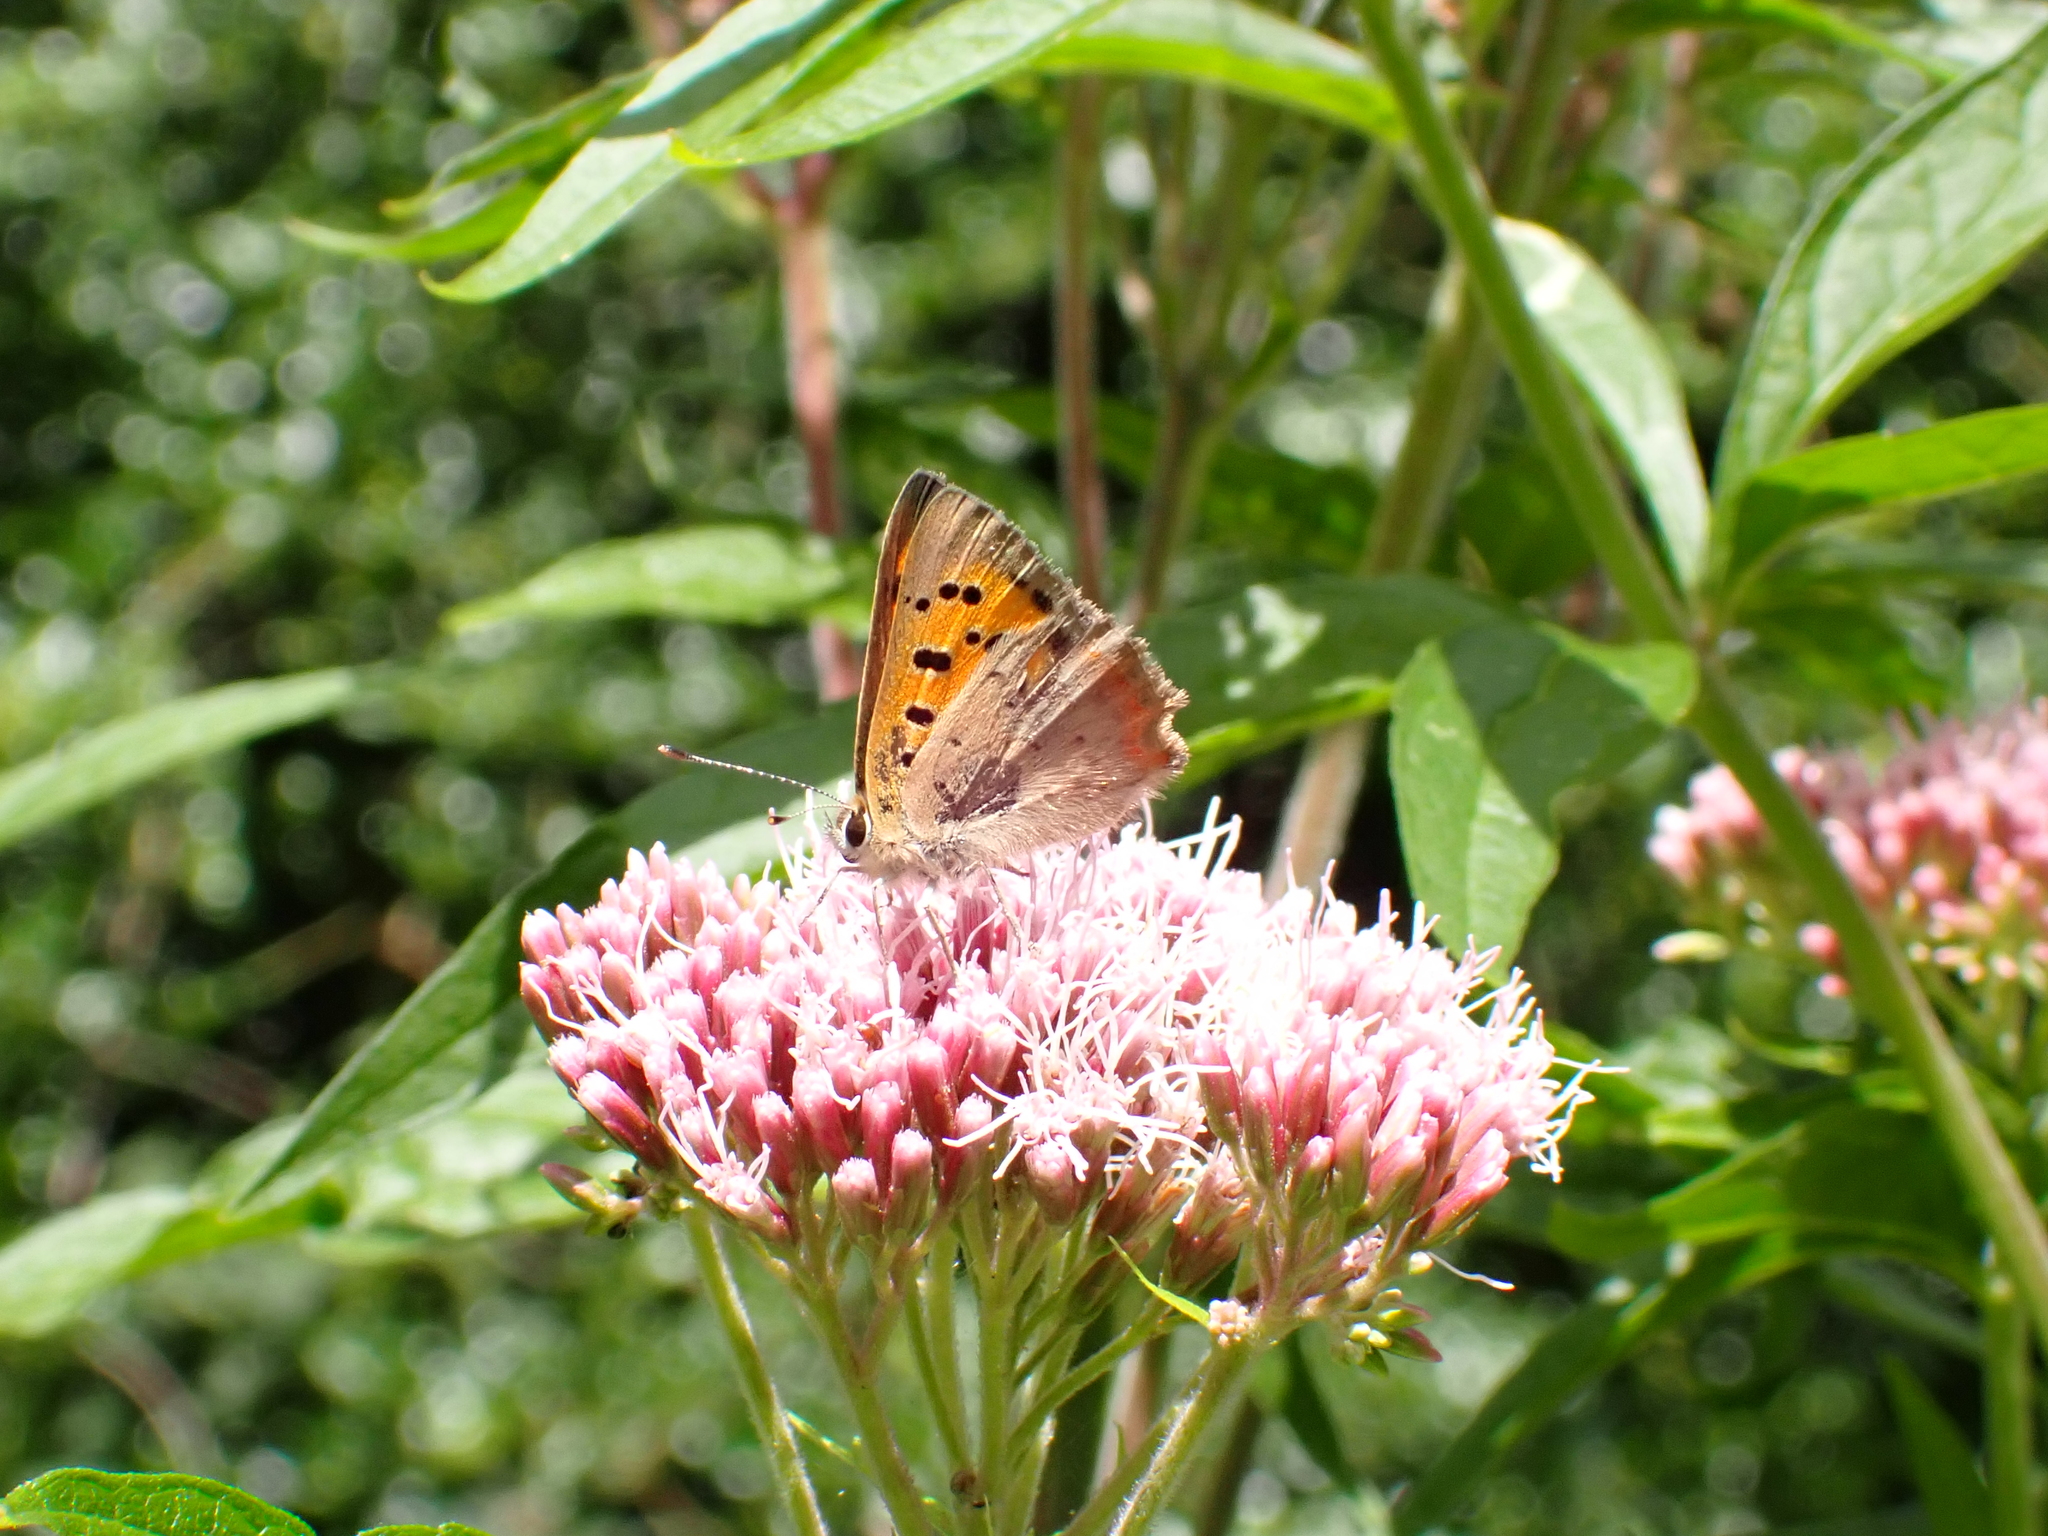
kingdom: Animalia
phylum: Arthropoda
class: Insecta
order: Lepidoptera
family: Lycaenidae
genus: Lycaena
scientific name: Lycaena phlaeas
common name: Small copper
